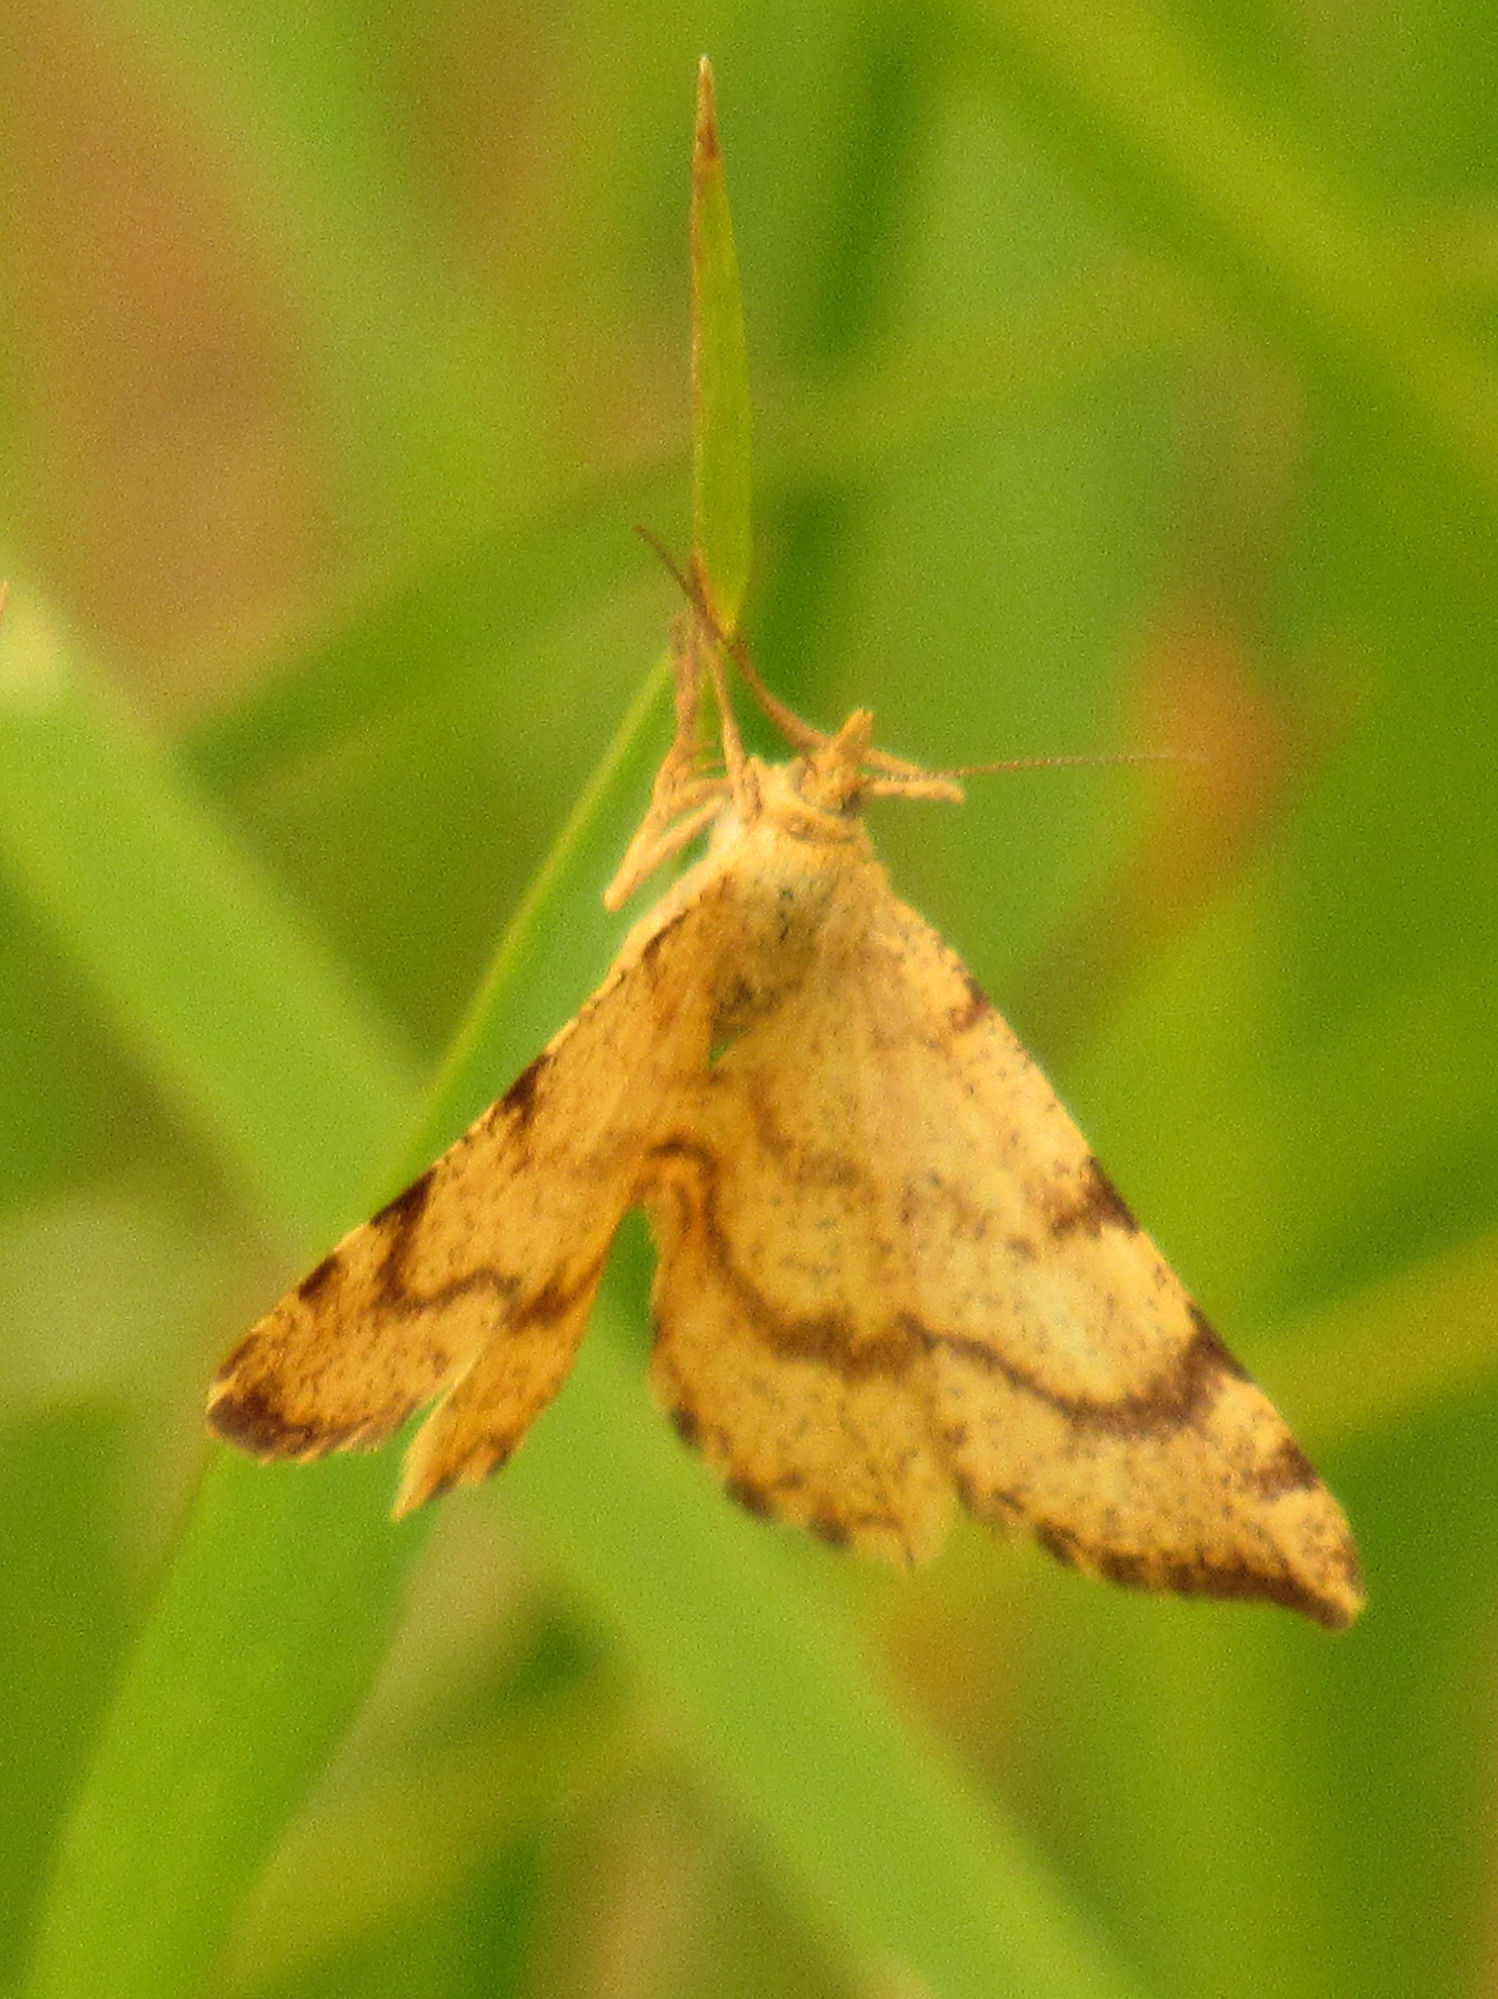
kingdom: Animalia
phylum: Arthropoda
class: Insecta
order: Lepidoptera
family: Geometridae
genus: Macaria
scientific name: Macaria brunneata
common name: Rannoch looper
